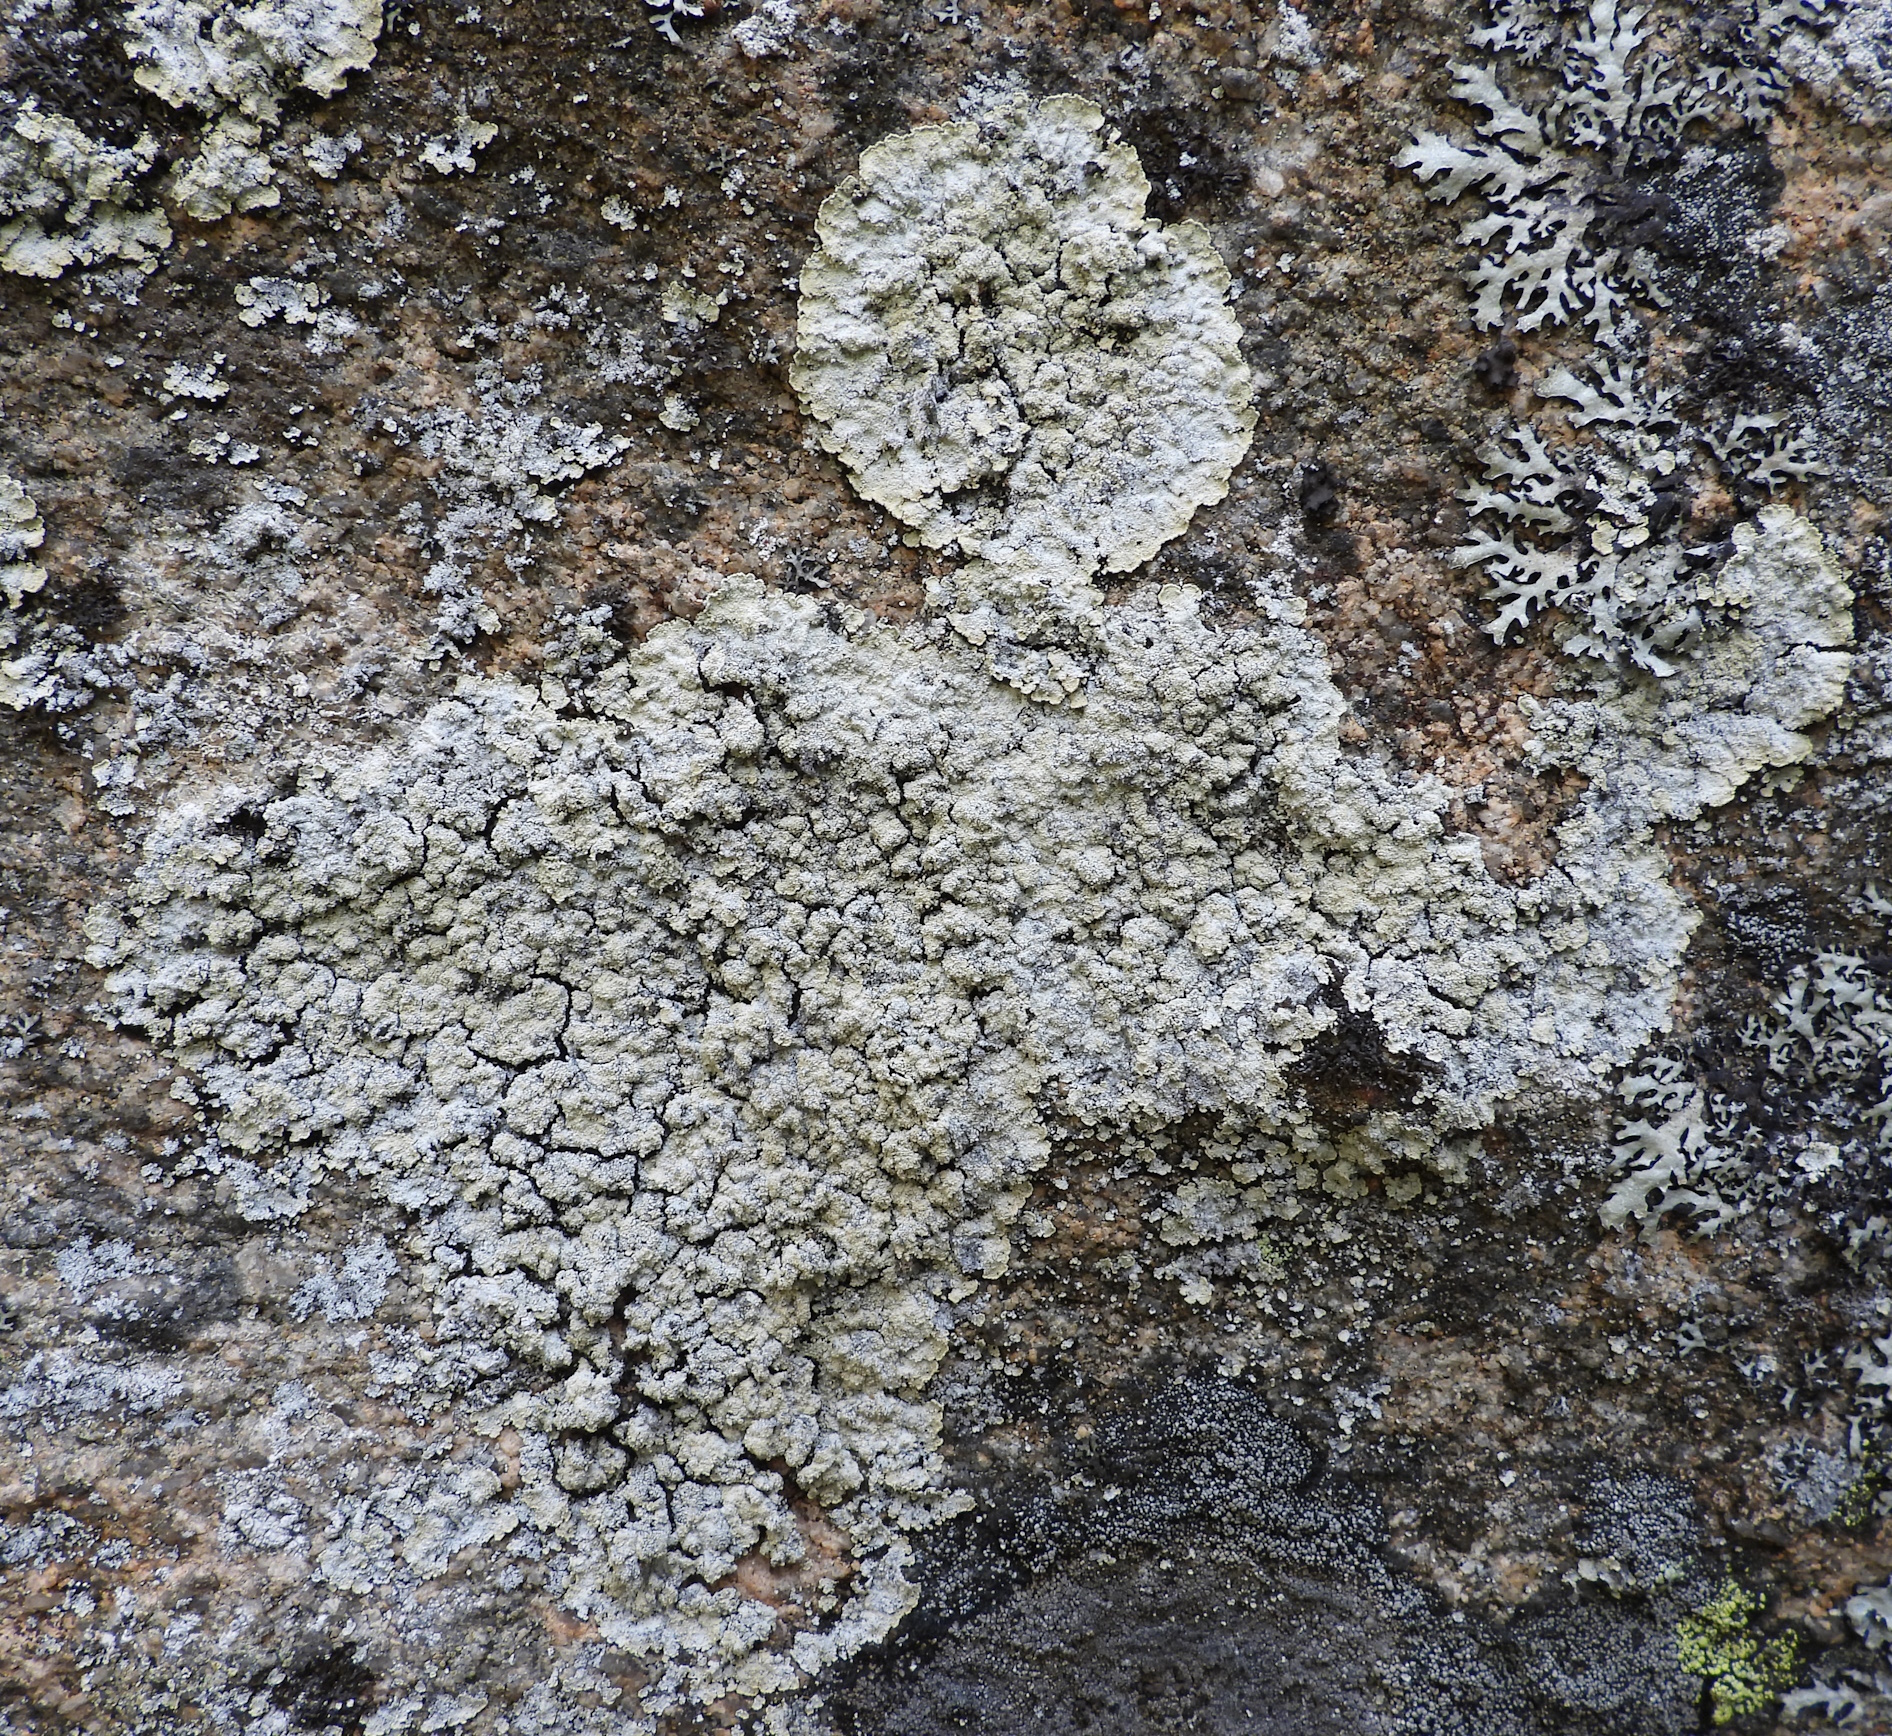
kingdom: Fungi
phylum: Ascomycota
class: Lecanoromycetes
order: Lecanorales
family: Stereocaulaceae
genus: Lepraria
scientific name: Lepraria membranacea
